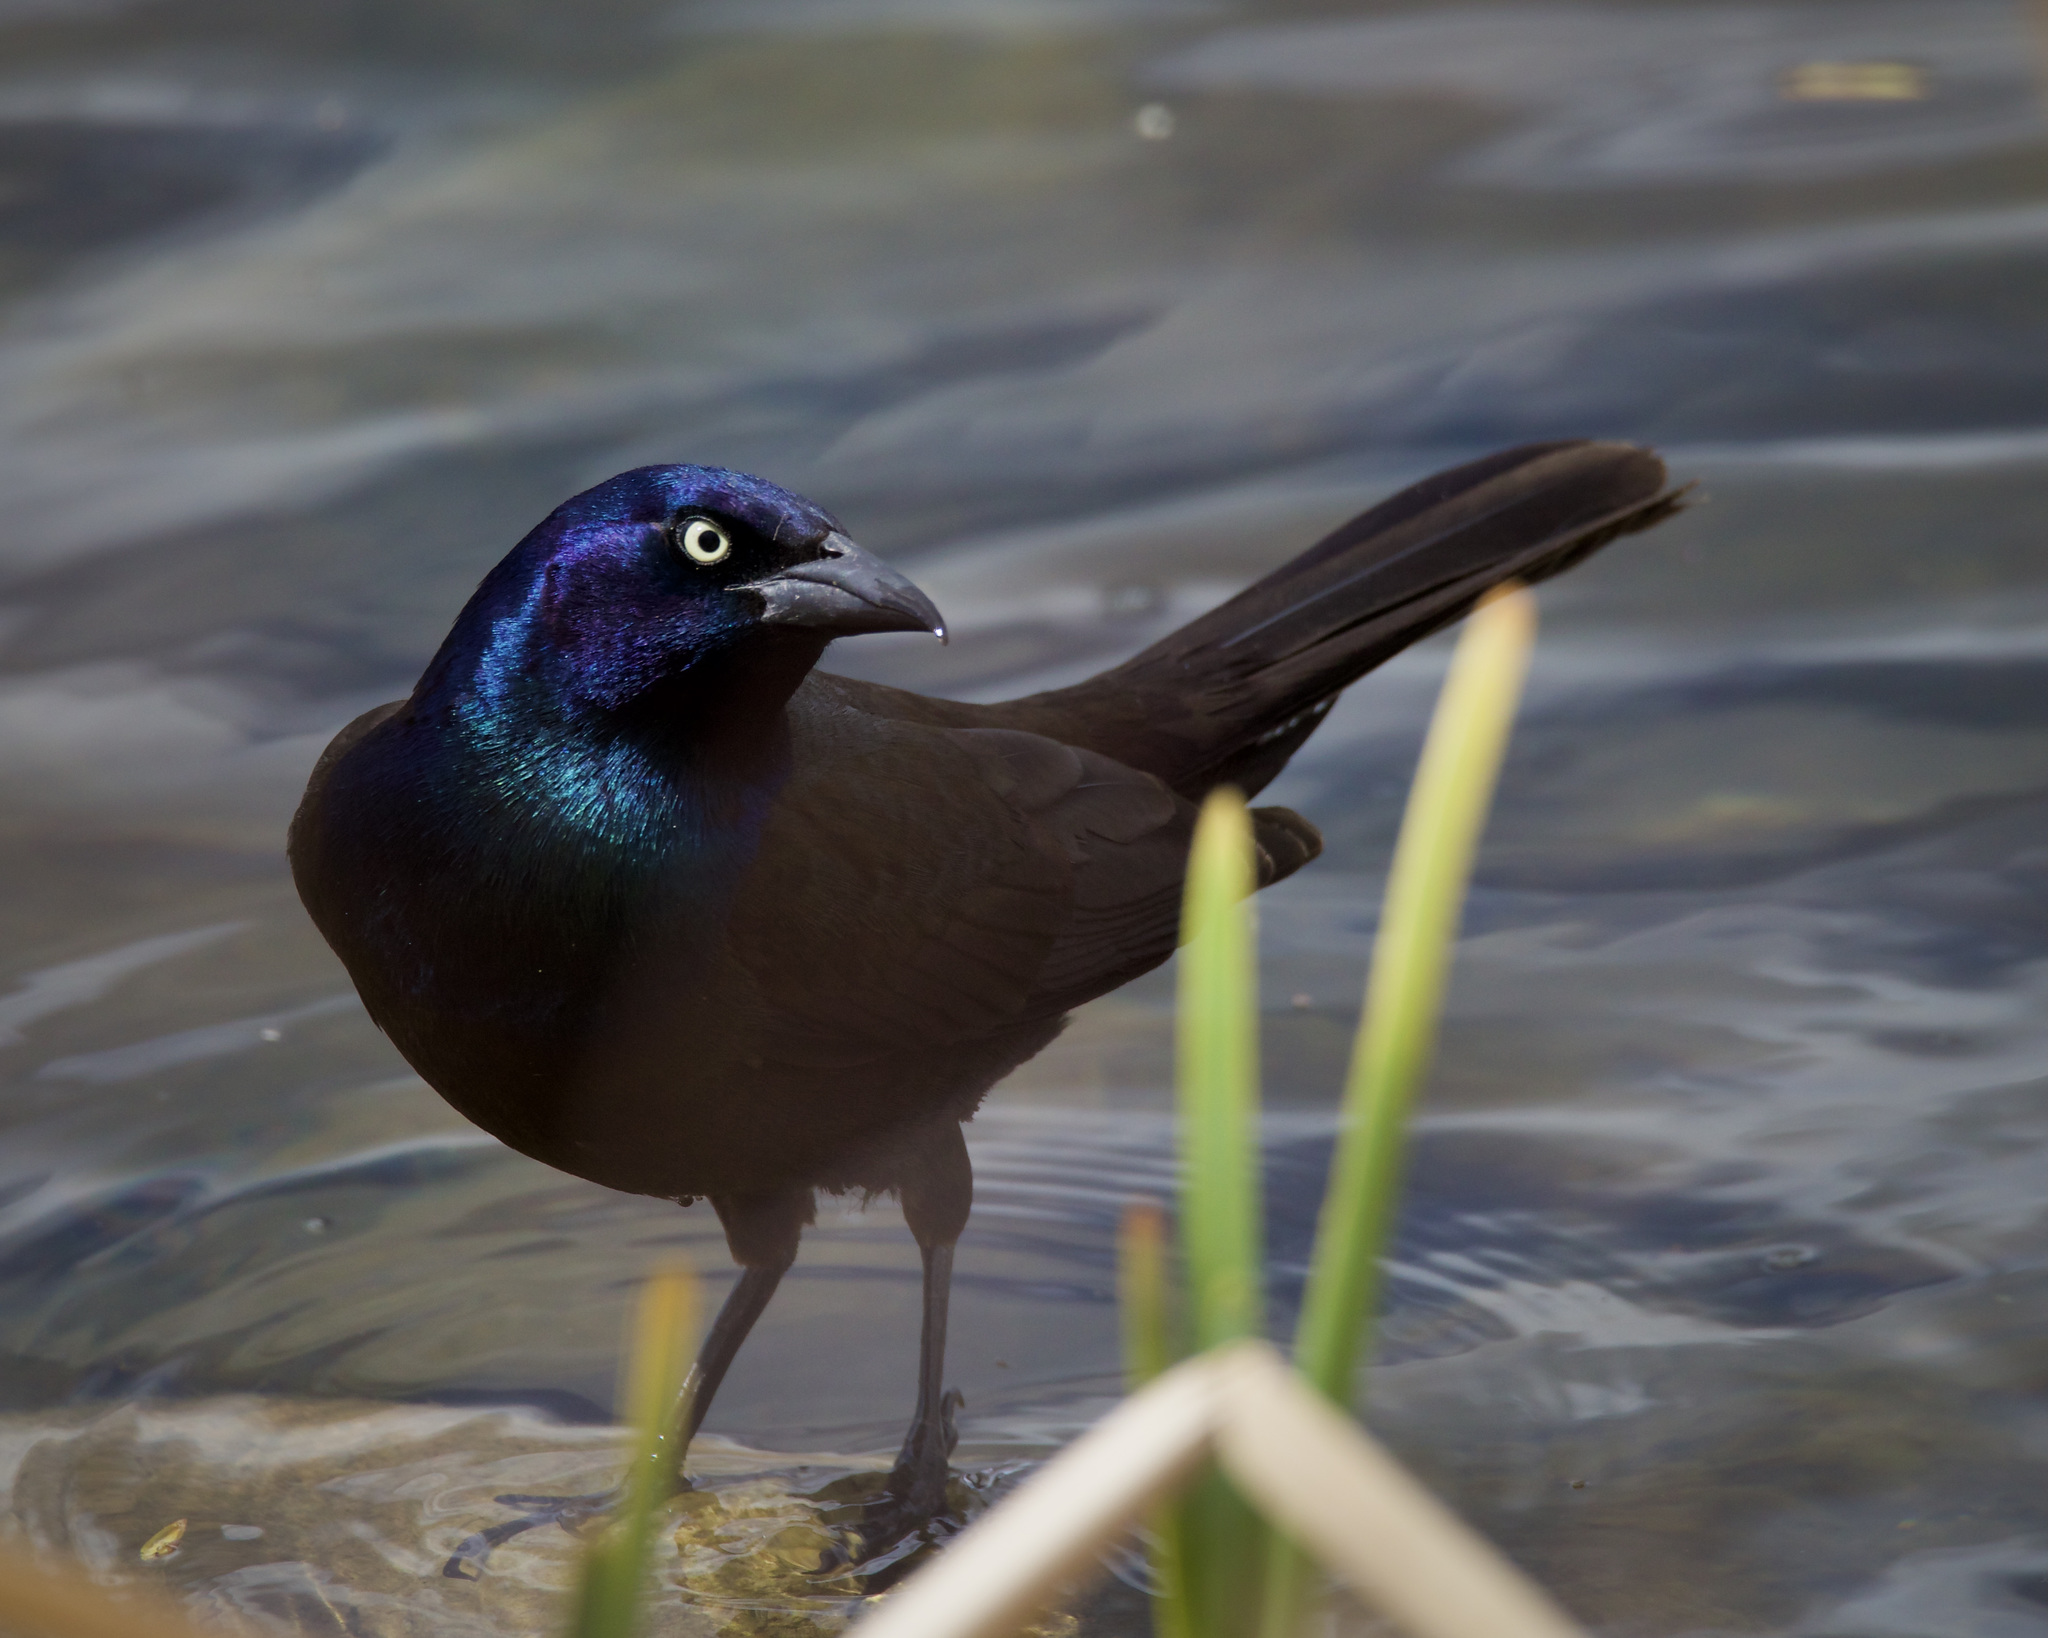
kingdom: Animalia
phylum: Chordata
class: Aves
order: Passeriformes
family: Icteridae
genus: Quiscalus
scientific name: Quiscalus quiscula
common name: Common grackle
